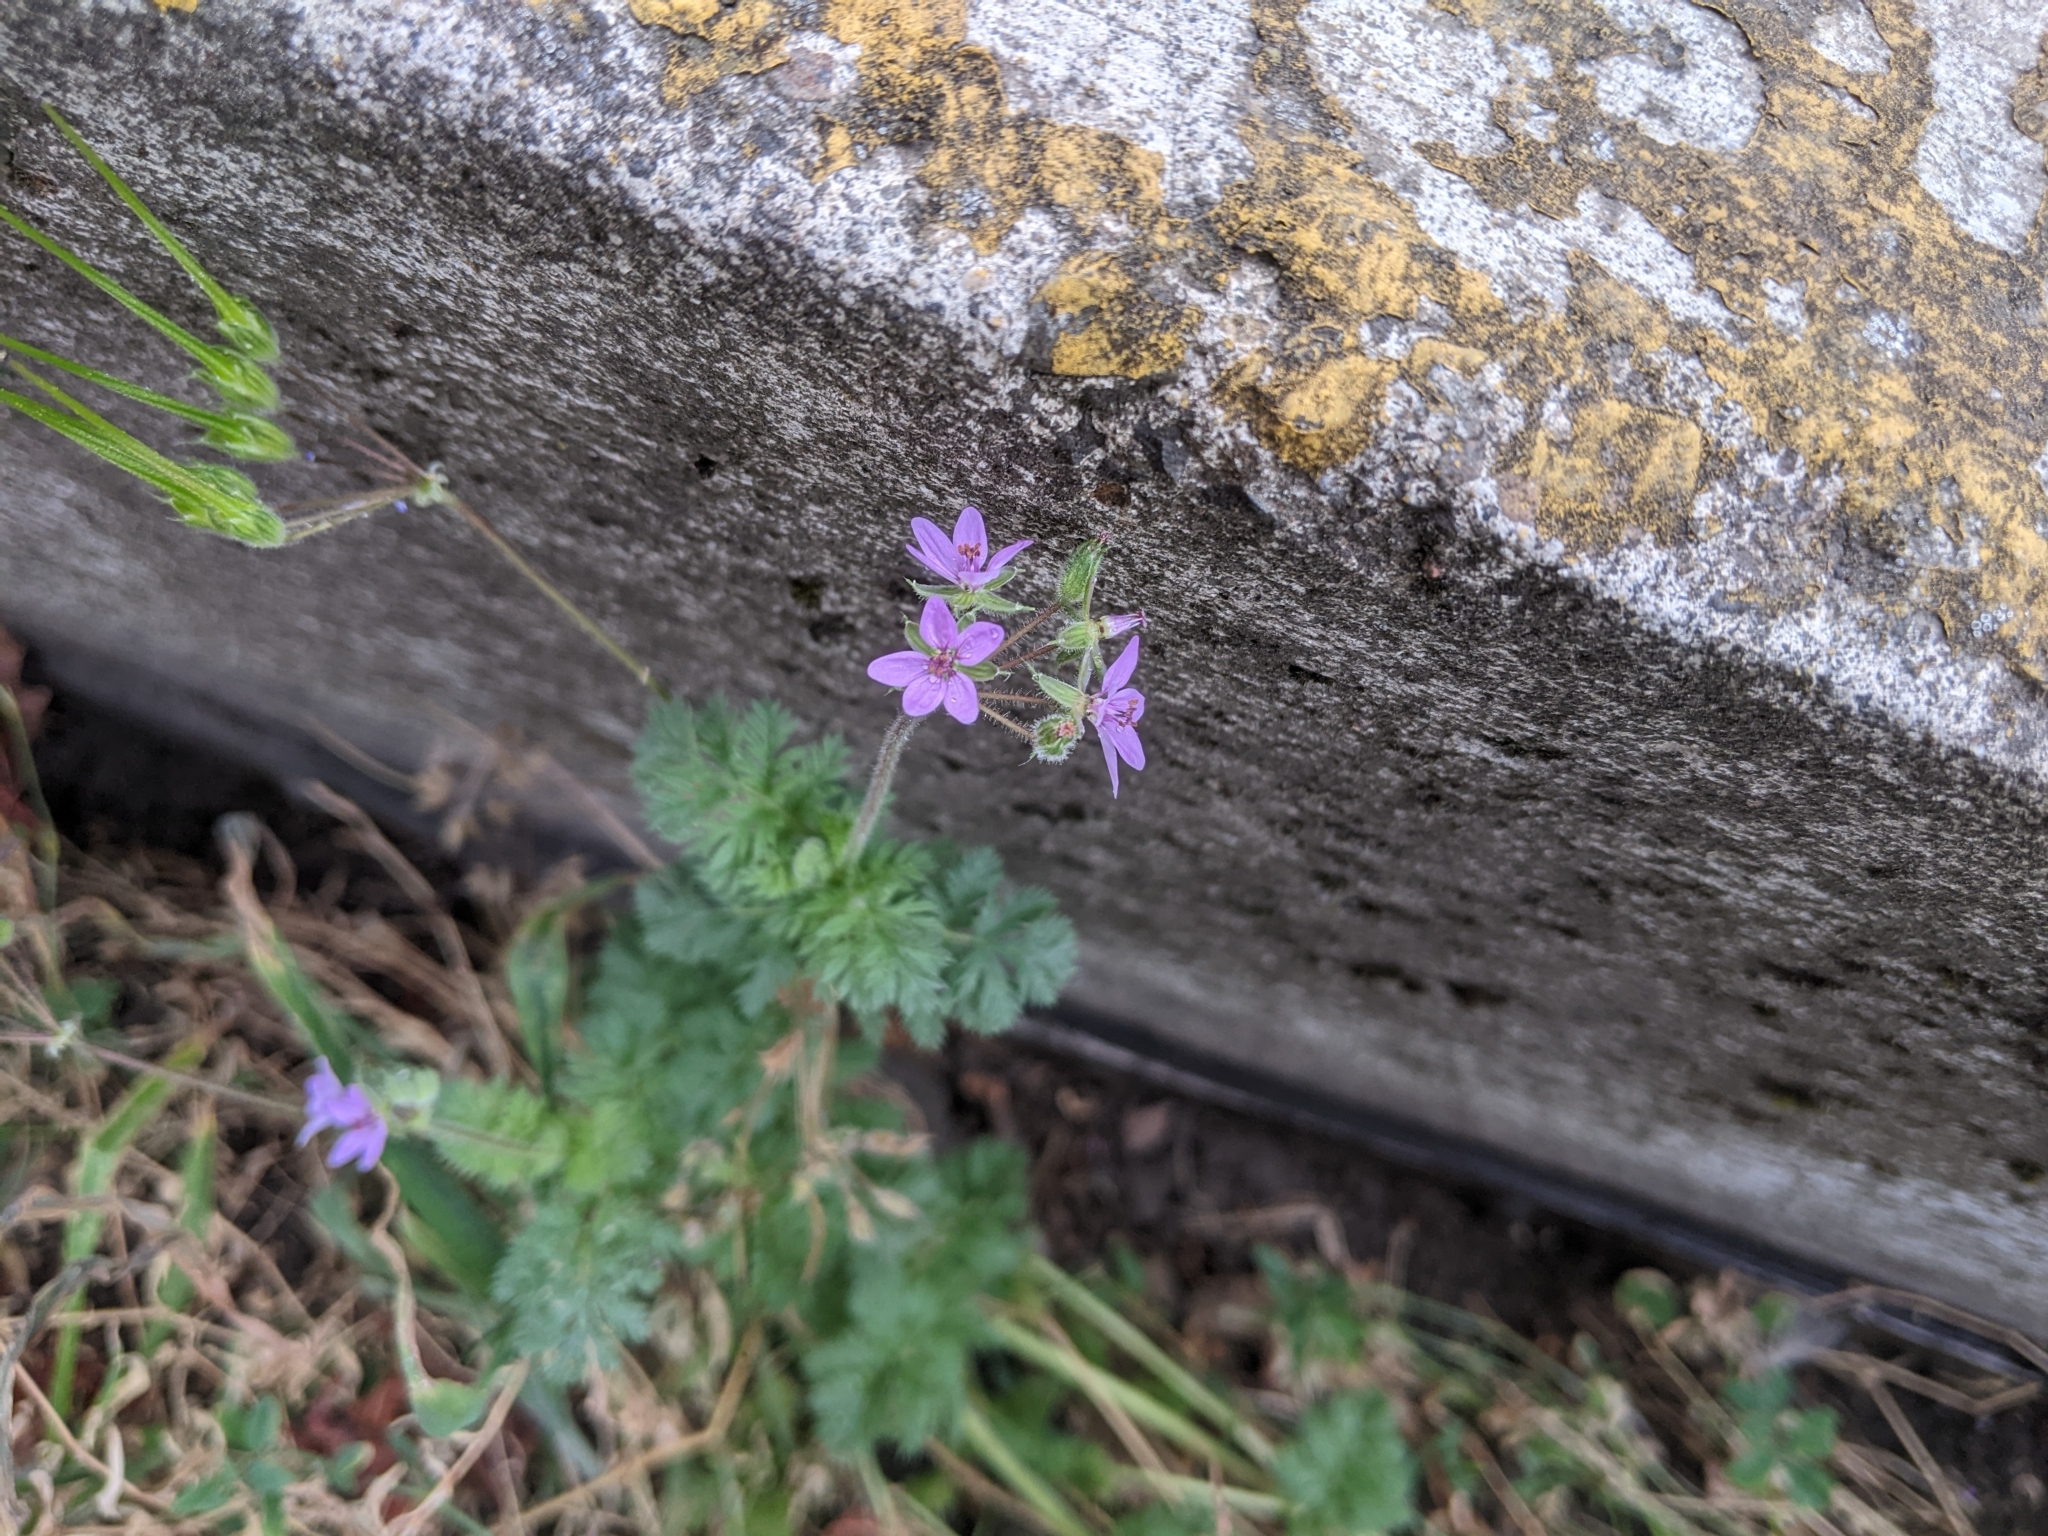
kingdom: Plantae
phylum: Tracheophyta
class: Magnoliopsida
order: Geraniales
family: Geraniaceae
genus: Erodium
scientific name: Erodium cicutarium
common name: Common stork's-bill
